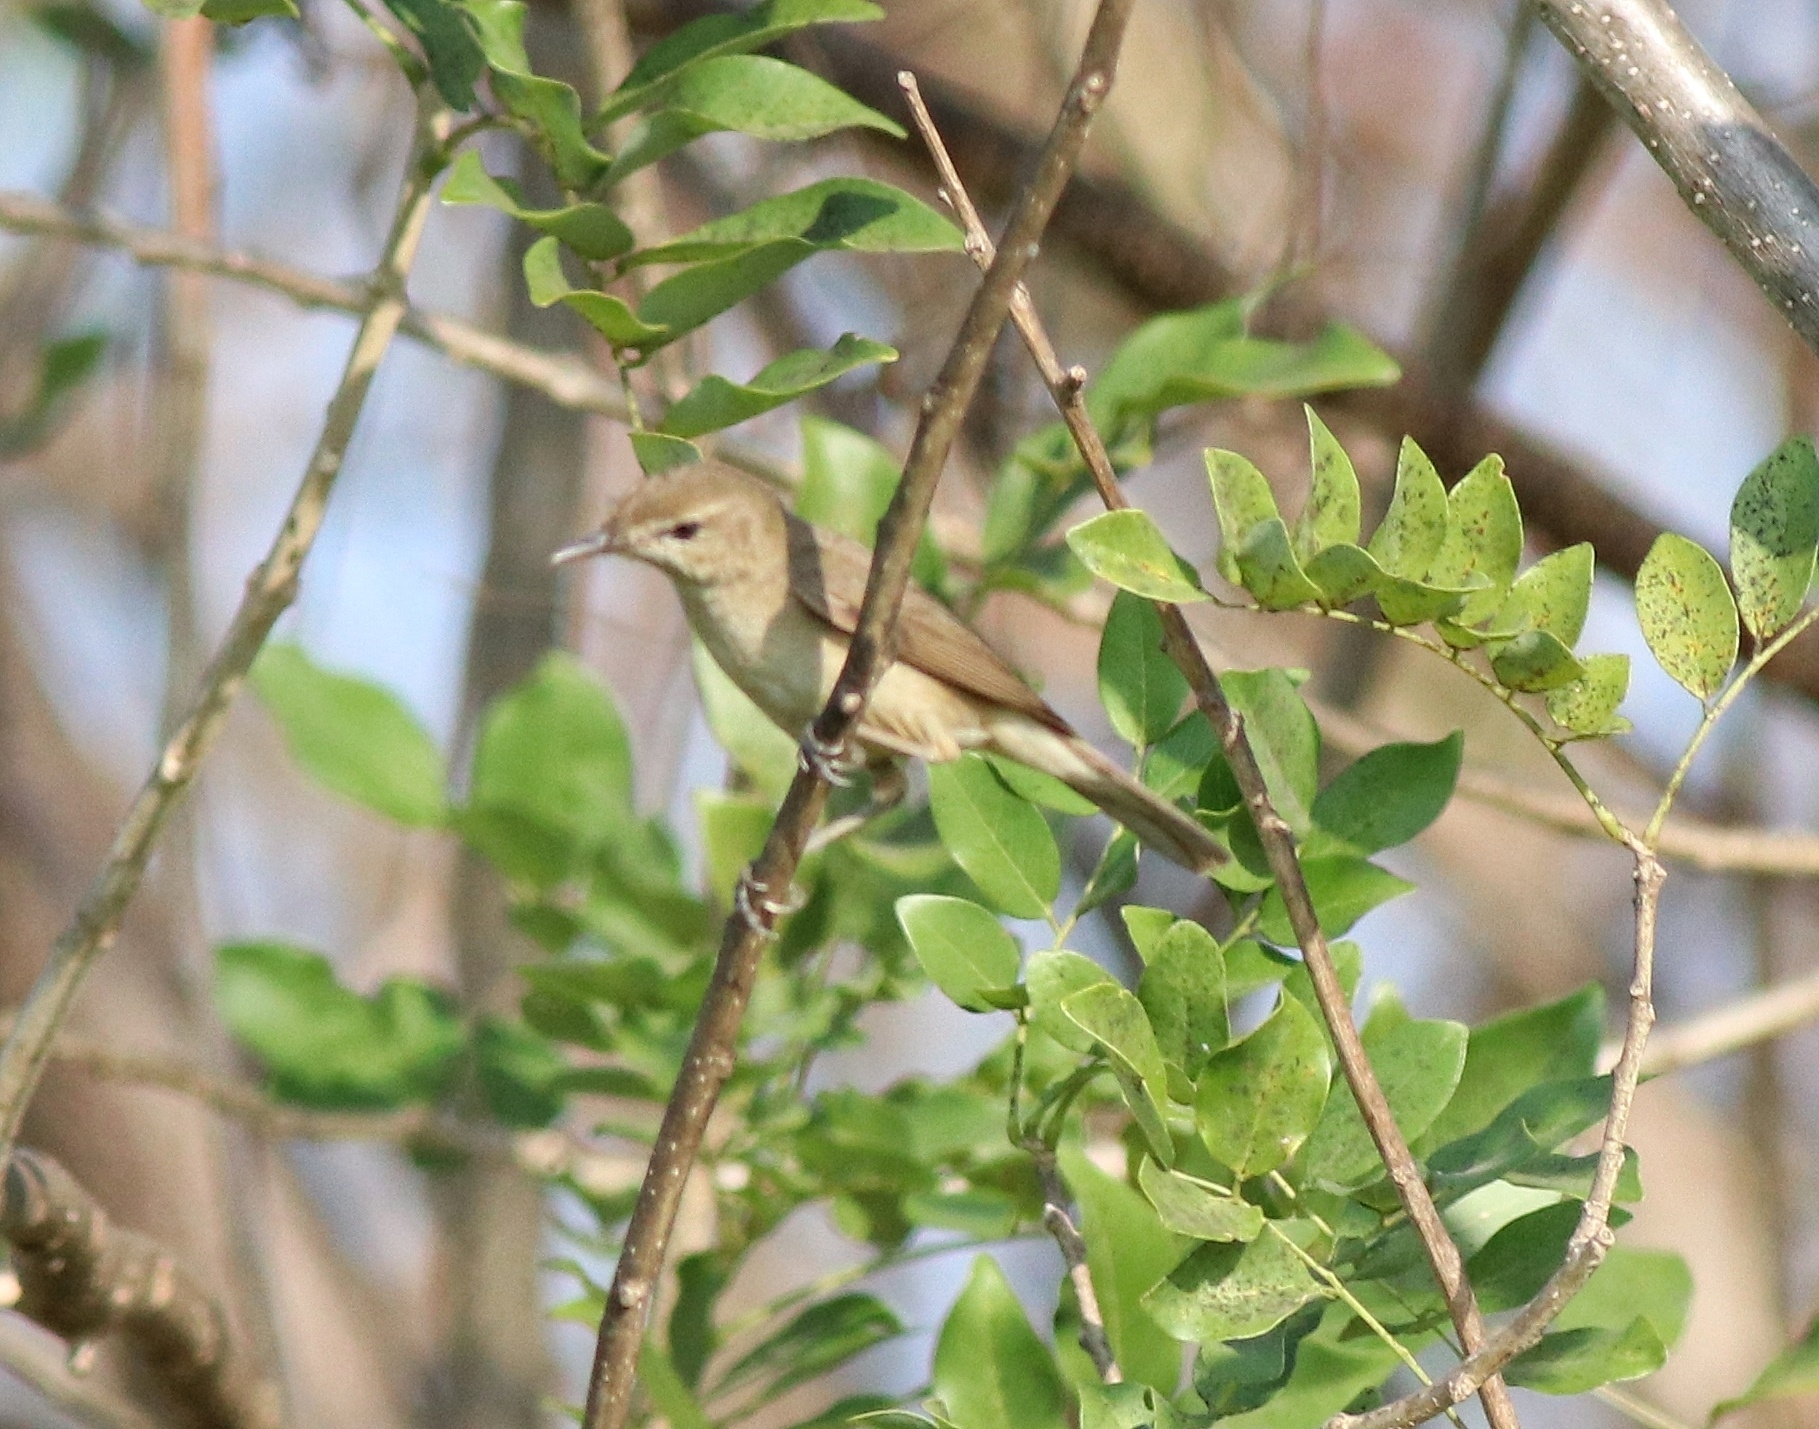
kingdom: Animalia
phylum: Chordata
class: Aves
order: Passeriformes
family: Acrocephalidae
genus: Acrocephalus
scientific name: Acrocephalus dumetorum
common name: Blyth's reed warbler
